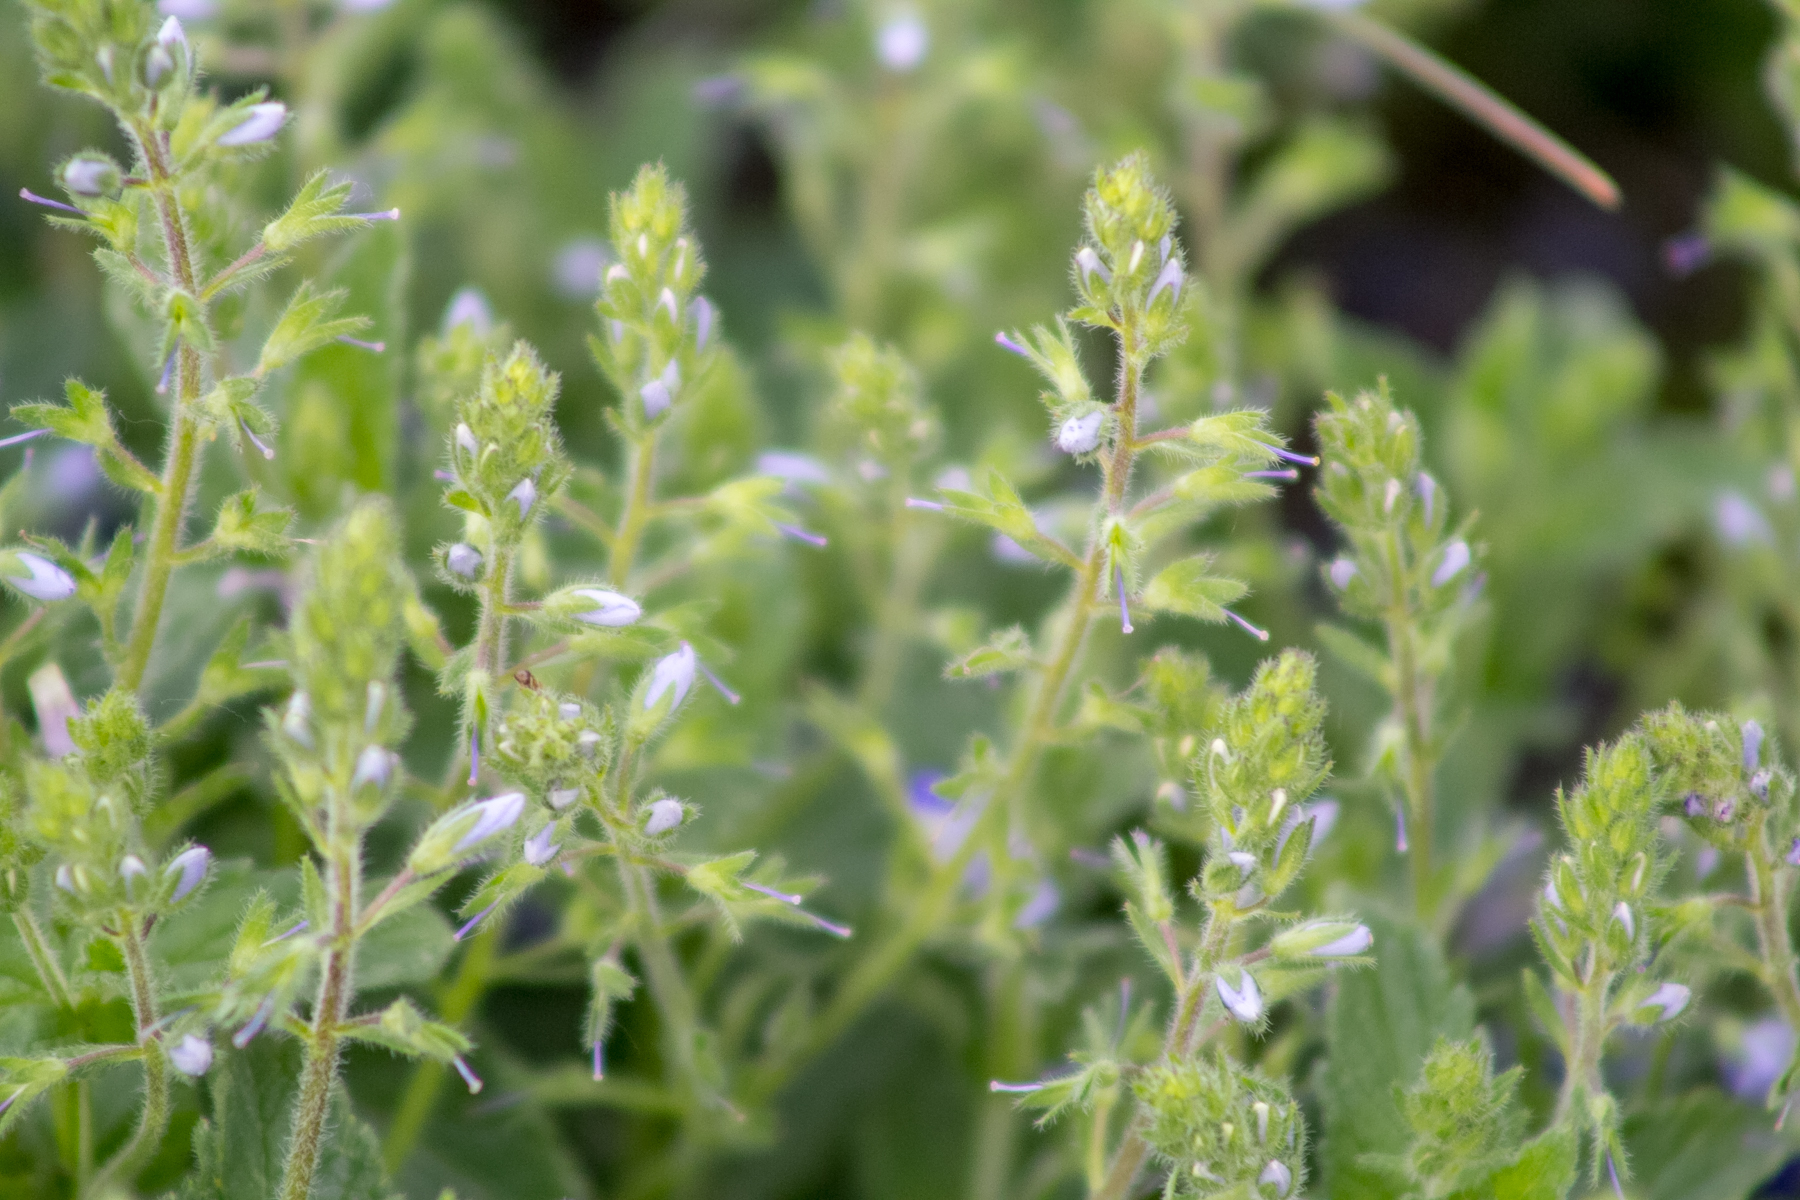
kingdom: Plantae
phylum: Tracheophyta
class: Magnoliopsida
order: Lamiales
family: Plantaginaceae
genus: Veronica
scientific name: Veronica chamaedrys
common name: Germander speedwell
